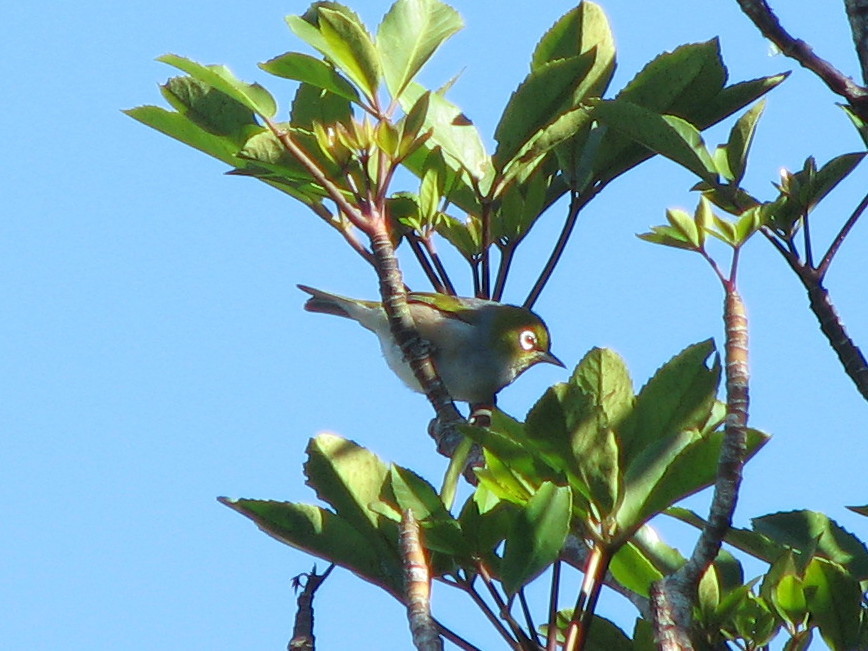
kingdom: Animalia
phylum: Chordata
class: Aves
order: Passeriformes
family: Zosteropidae
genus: Zosterops
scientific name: Zosterops lateralis
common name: Silvereye
